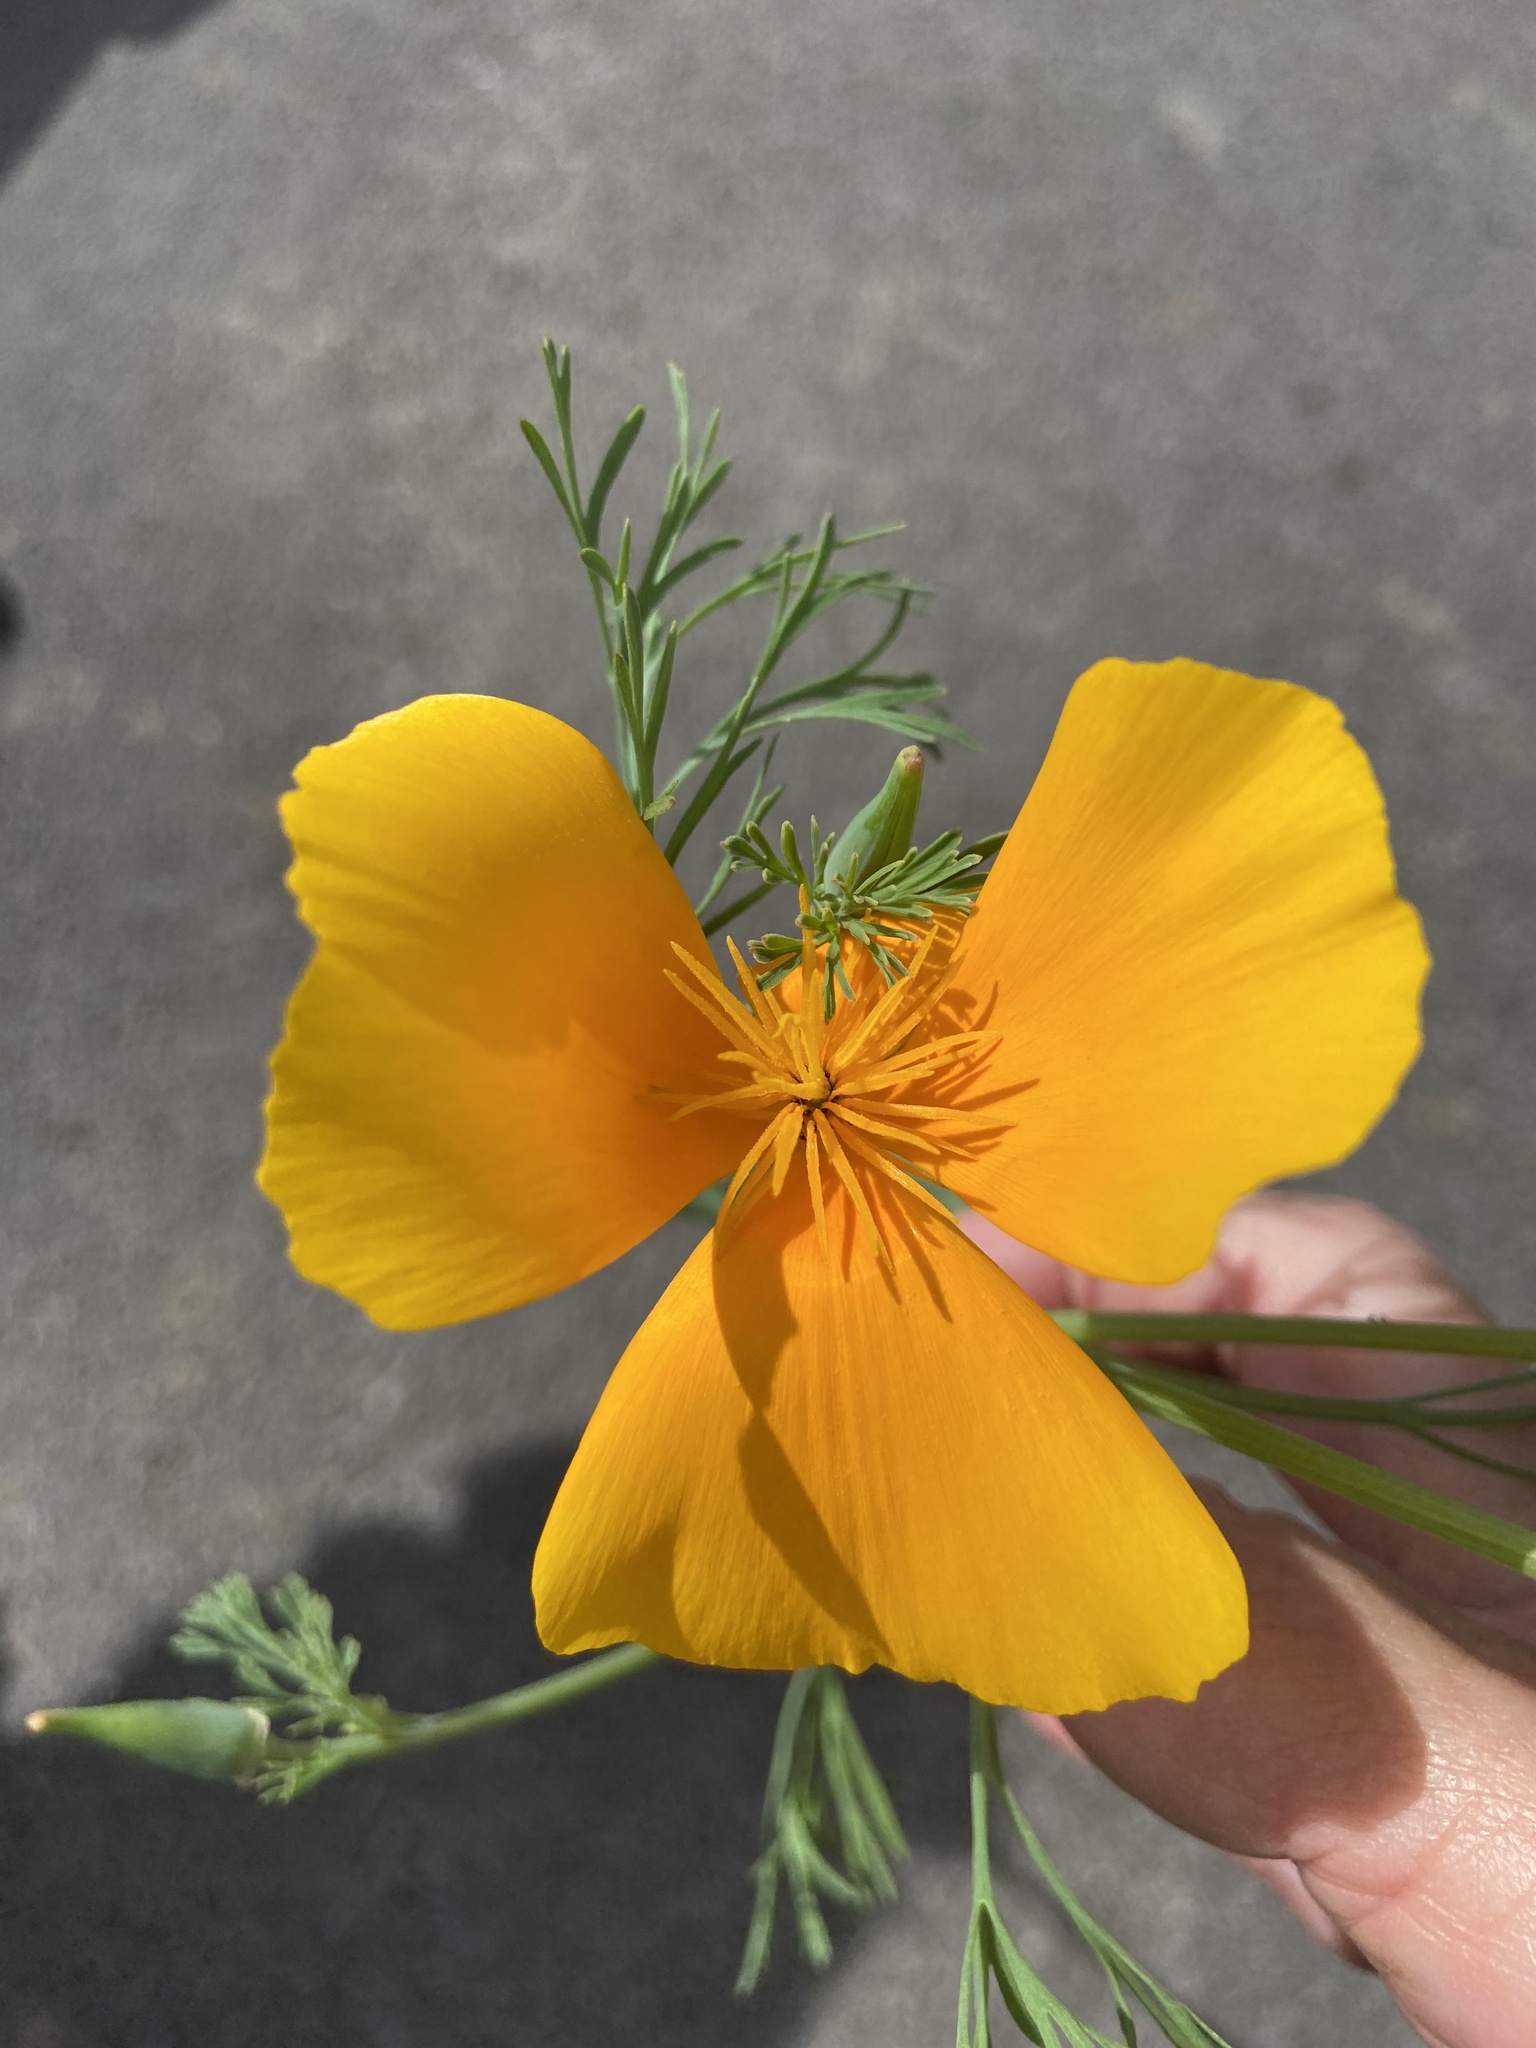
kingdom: Plantae
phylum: Tracheophyta
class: Magnoliopsida
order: Ranunculales
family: Papaveraceae
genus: Eschscholzia
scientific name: Eschscholzia californica
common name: California poppy
